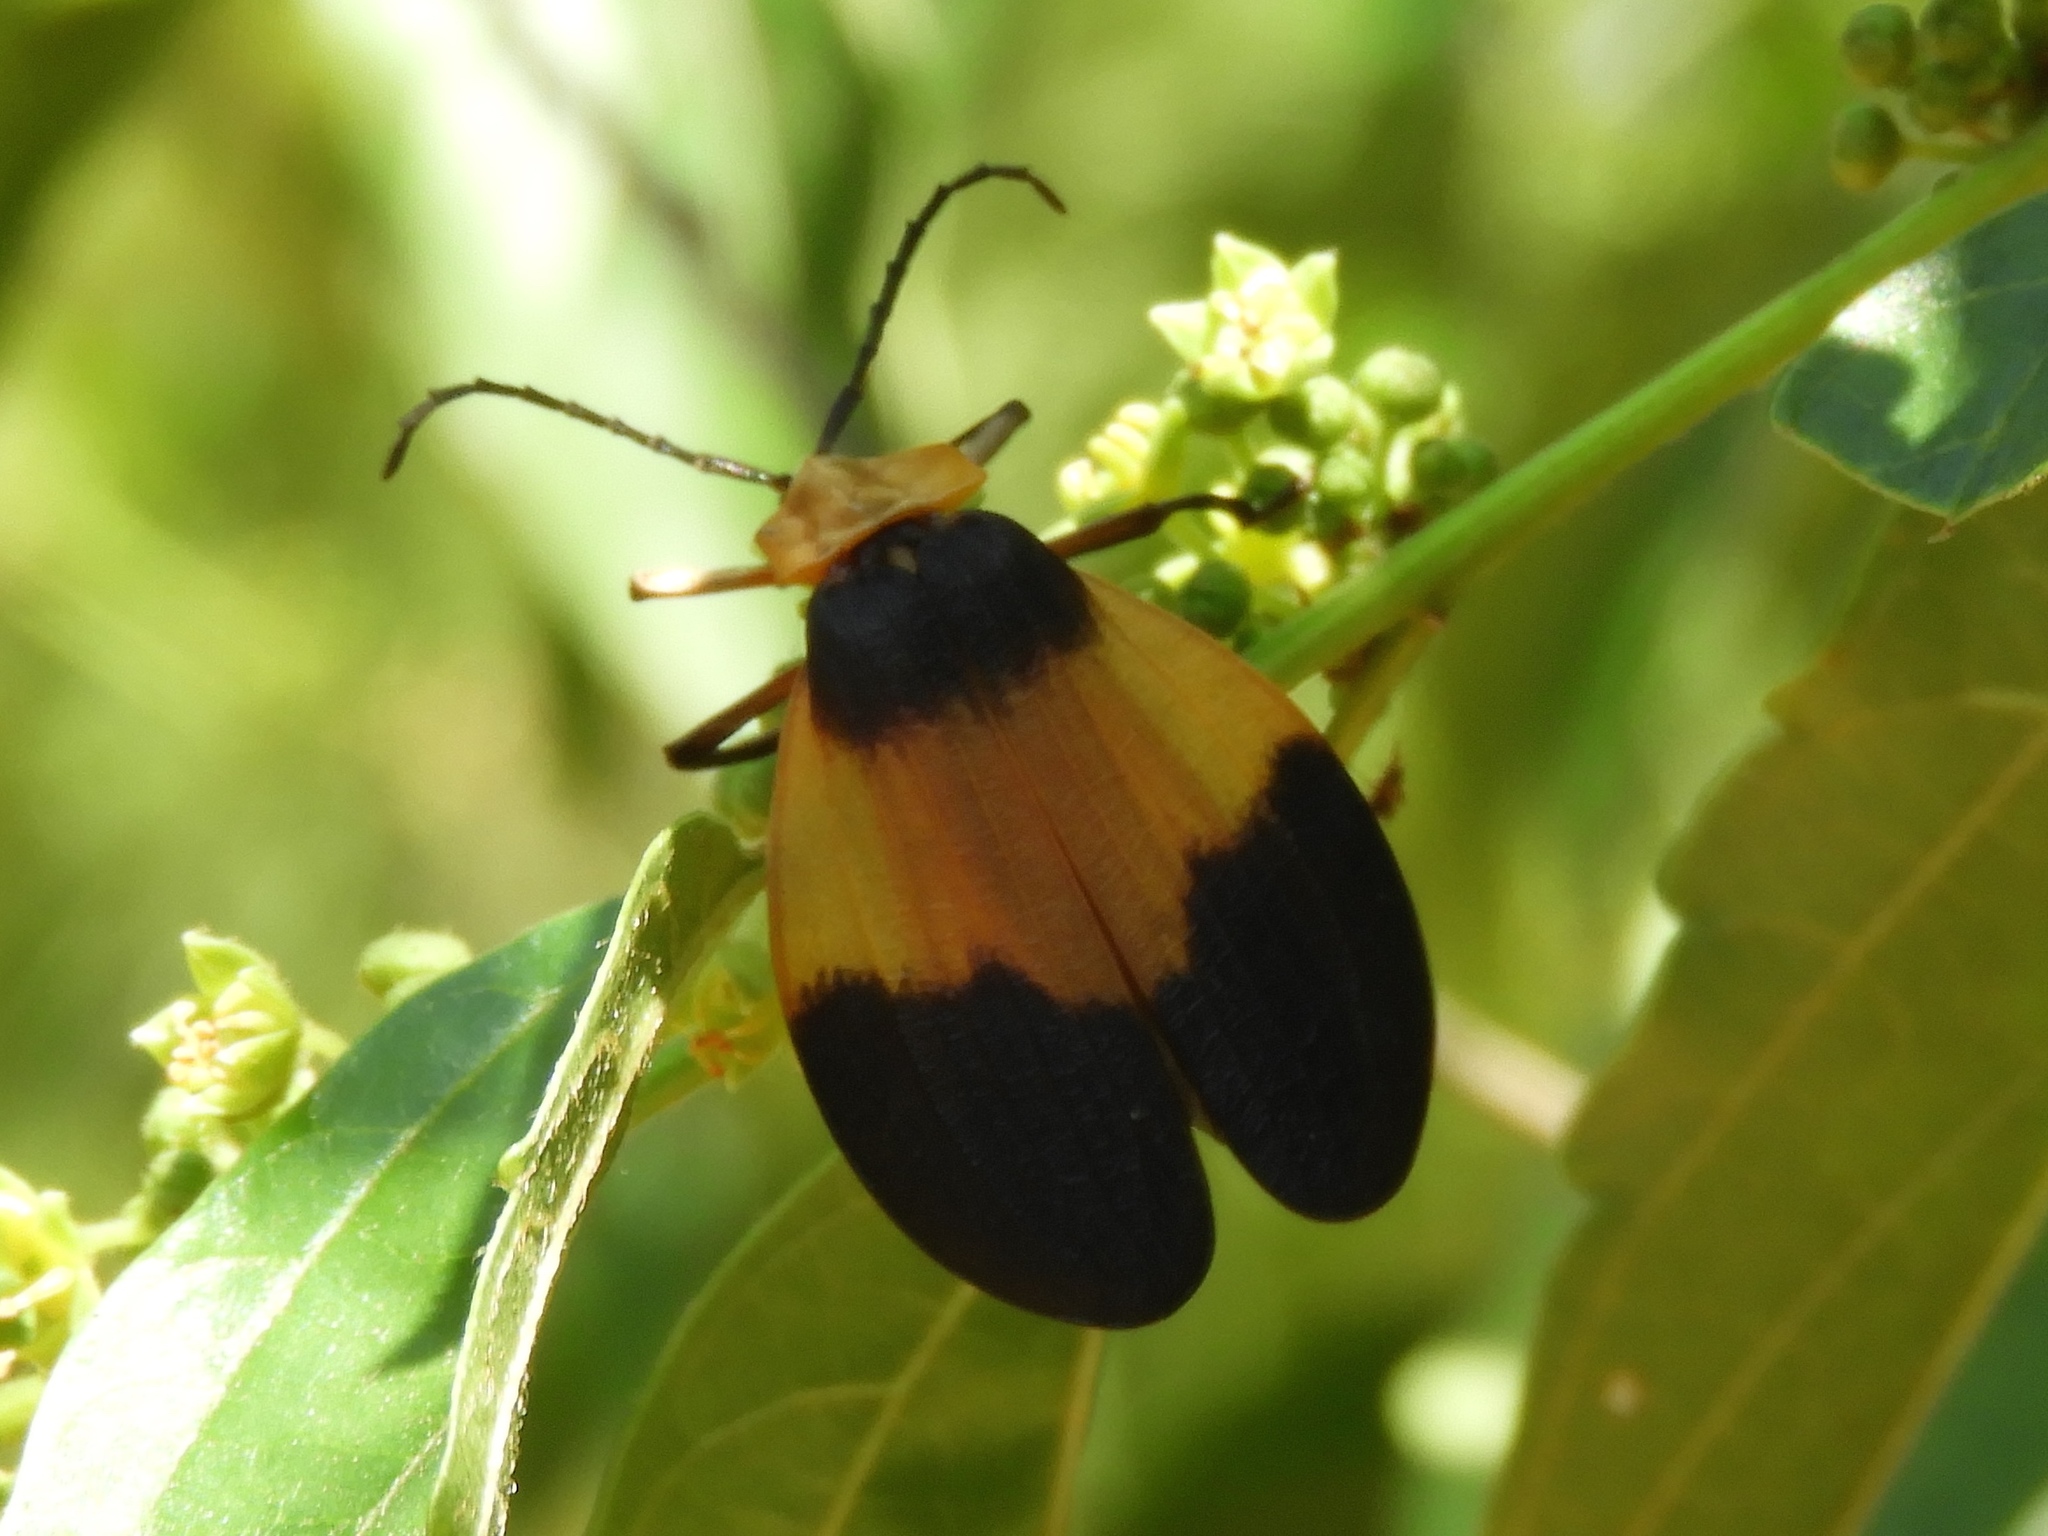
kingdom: Animalia
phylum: Arthropoda
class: Insecta
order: Coleoptera
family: Lycidae
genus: Lycus
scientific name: Lycus
